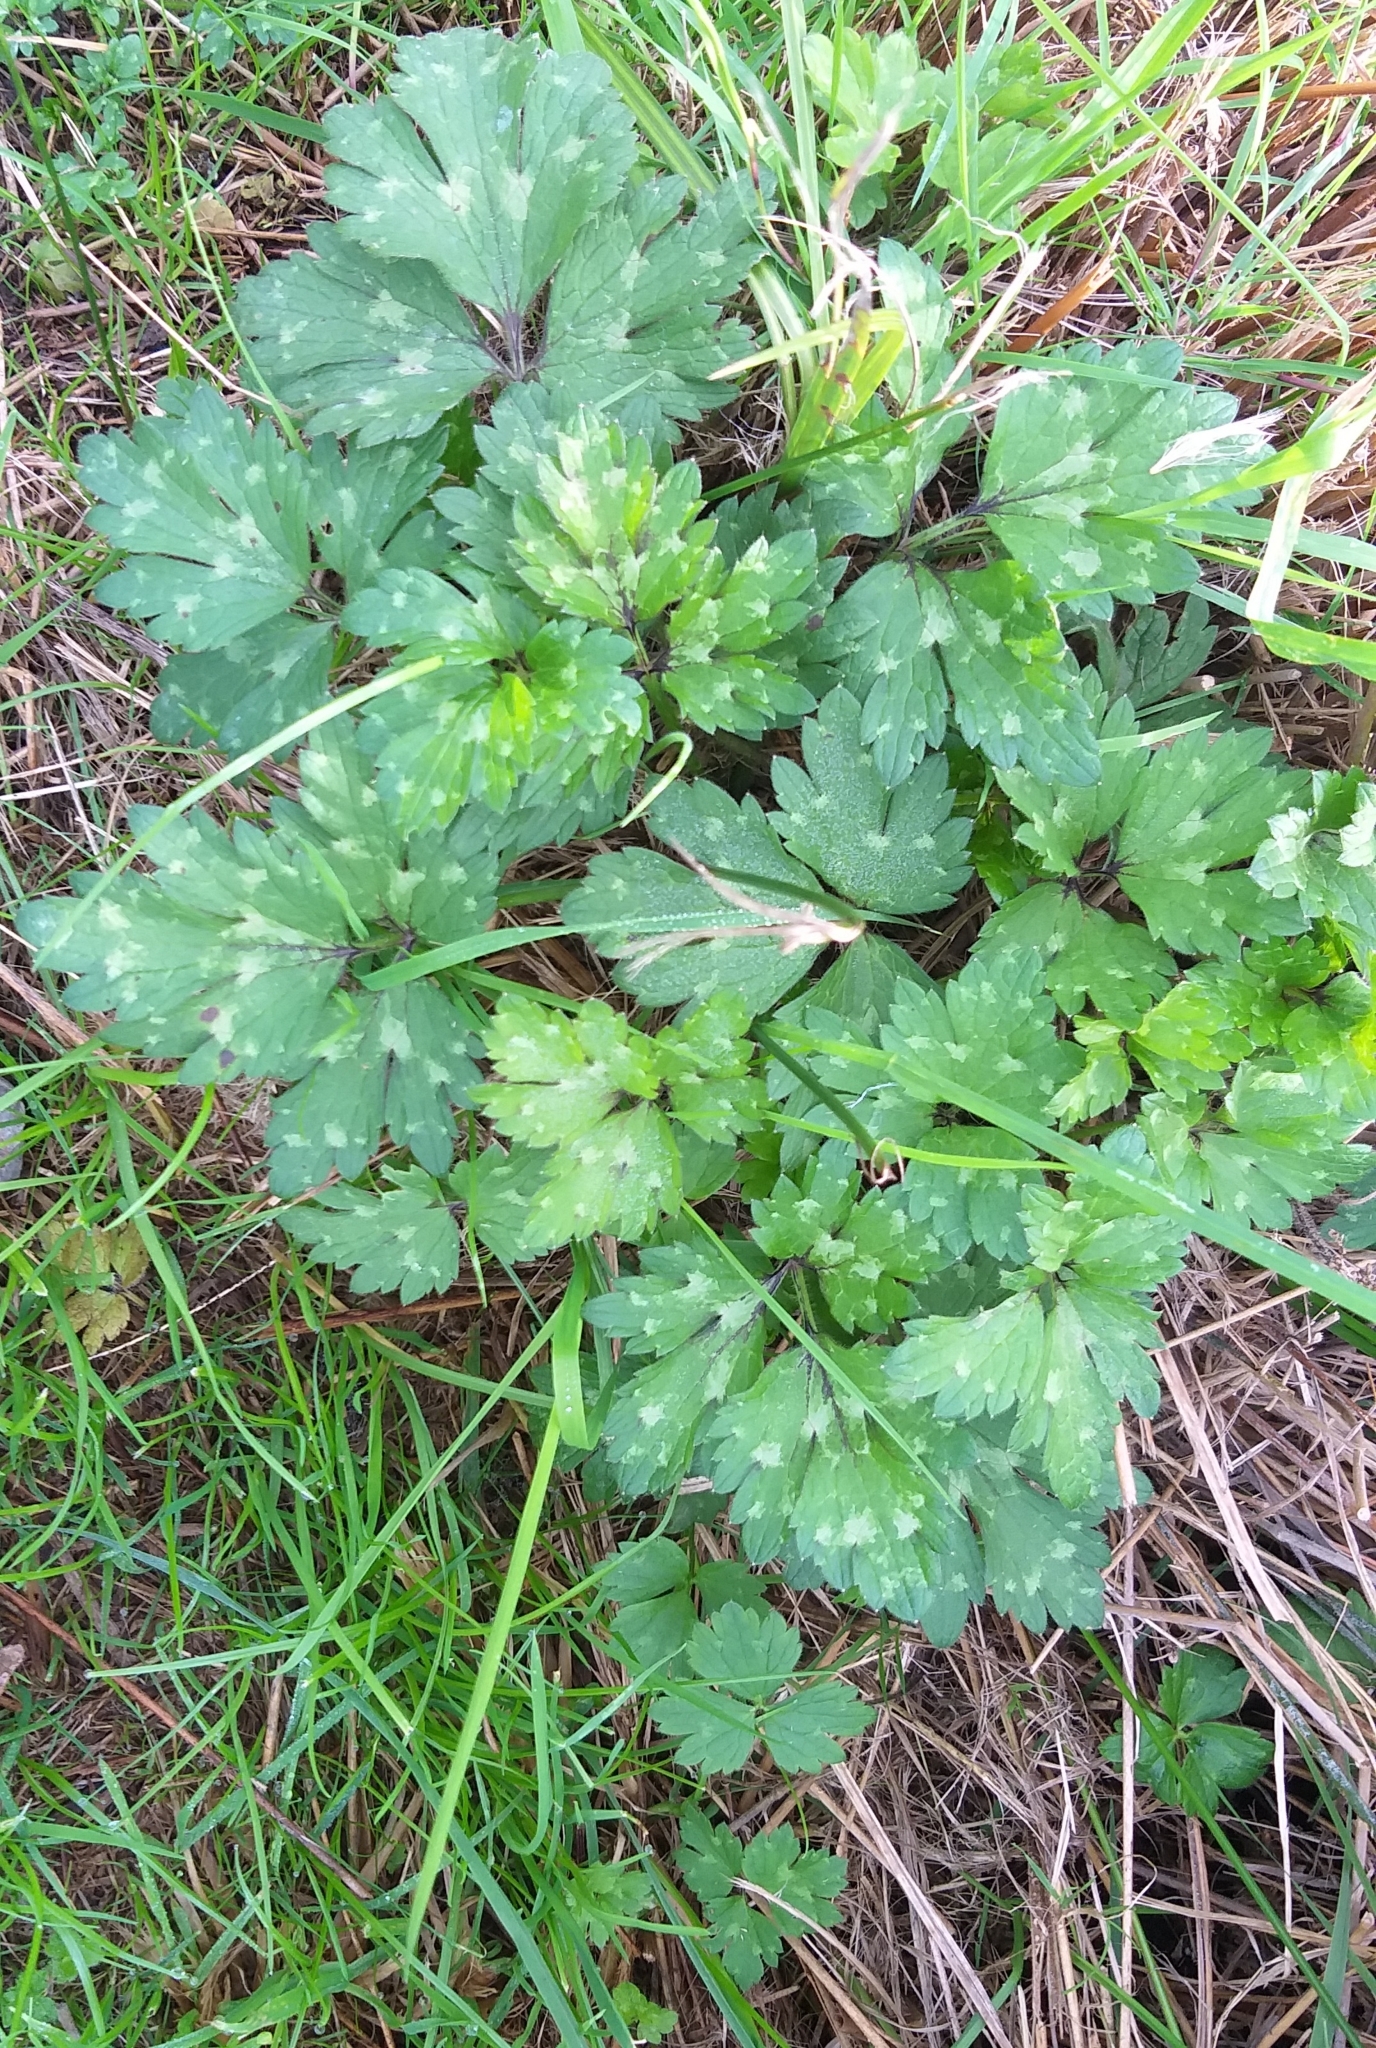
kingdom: Plantae
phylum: Tracheophyta
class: Magnoliopsida
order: Ranunculales
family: Ranunculaceae
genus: Ranunculus
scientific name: Ranunculus repens
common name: Creeping buttercup
